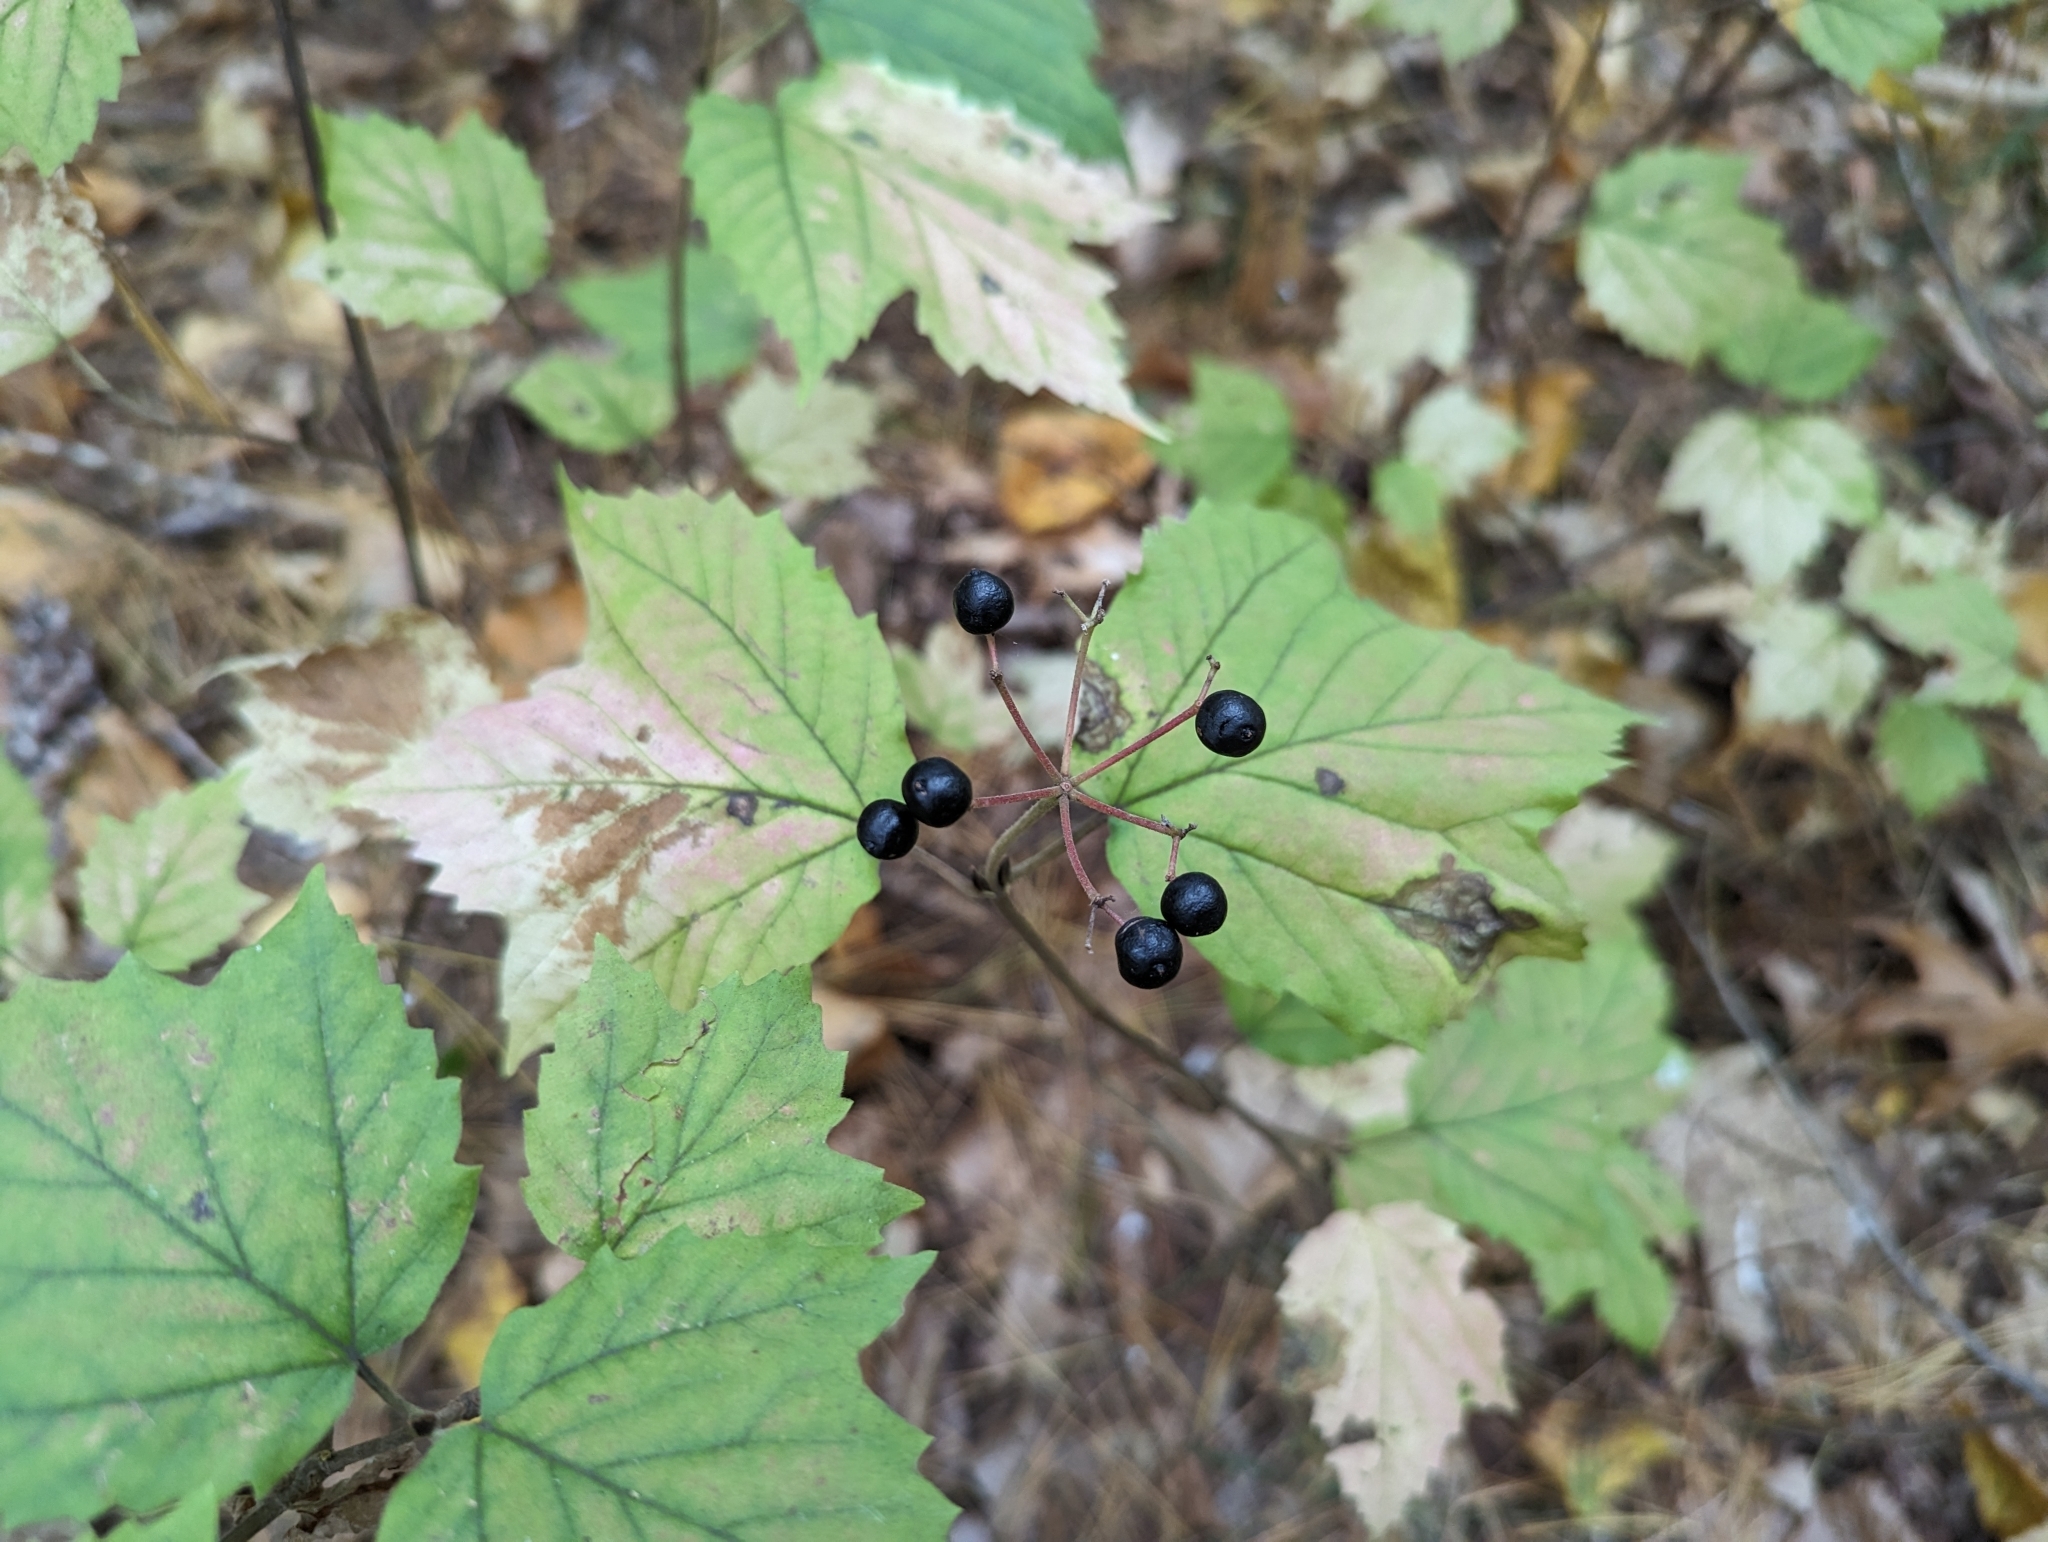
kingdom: Plantae
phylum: Tracheophyta
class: Magnoliopsida
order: Dipsacales
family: Viburnaceae
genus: Viburnum
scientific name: Viburnum acerifolium
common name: Dockmackie
